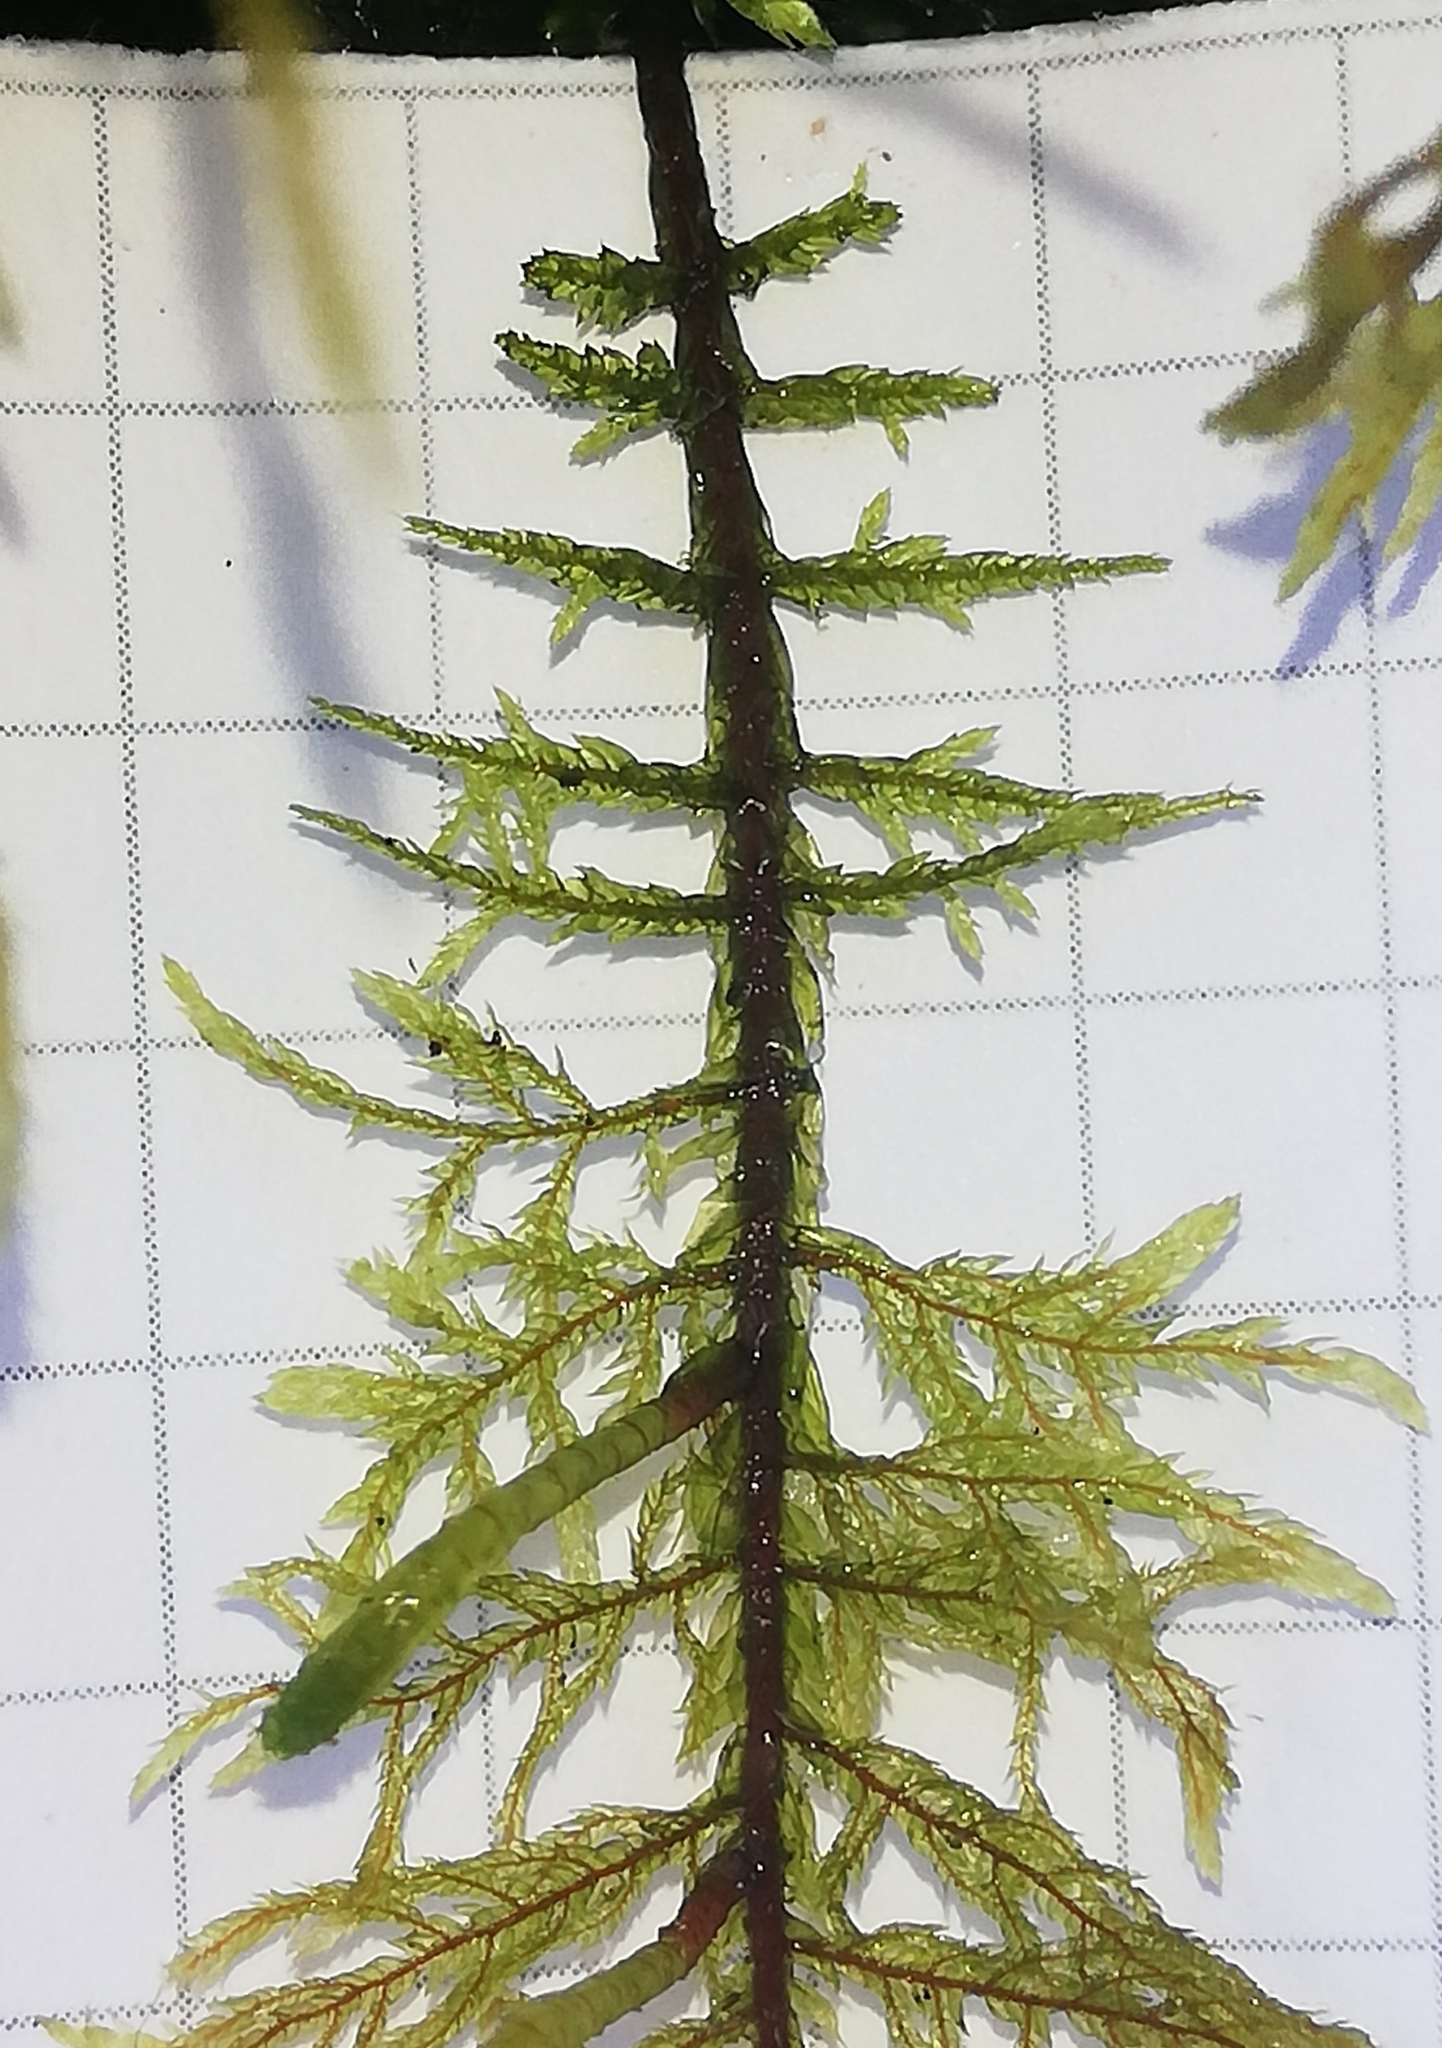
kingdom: Plantae
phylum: Bryophyta
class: Bryopsida
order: Hypnales
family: Hylocomiaceae
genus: Hylocomium
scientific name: Hylocomium splendens
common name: Stairstep moss
